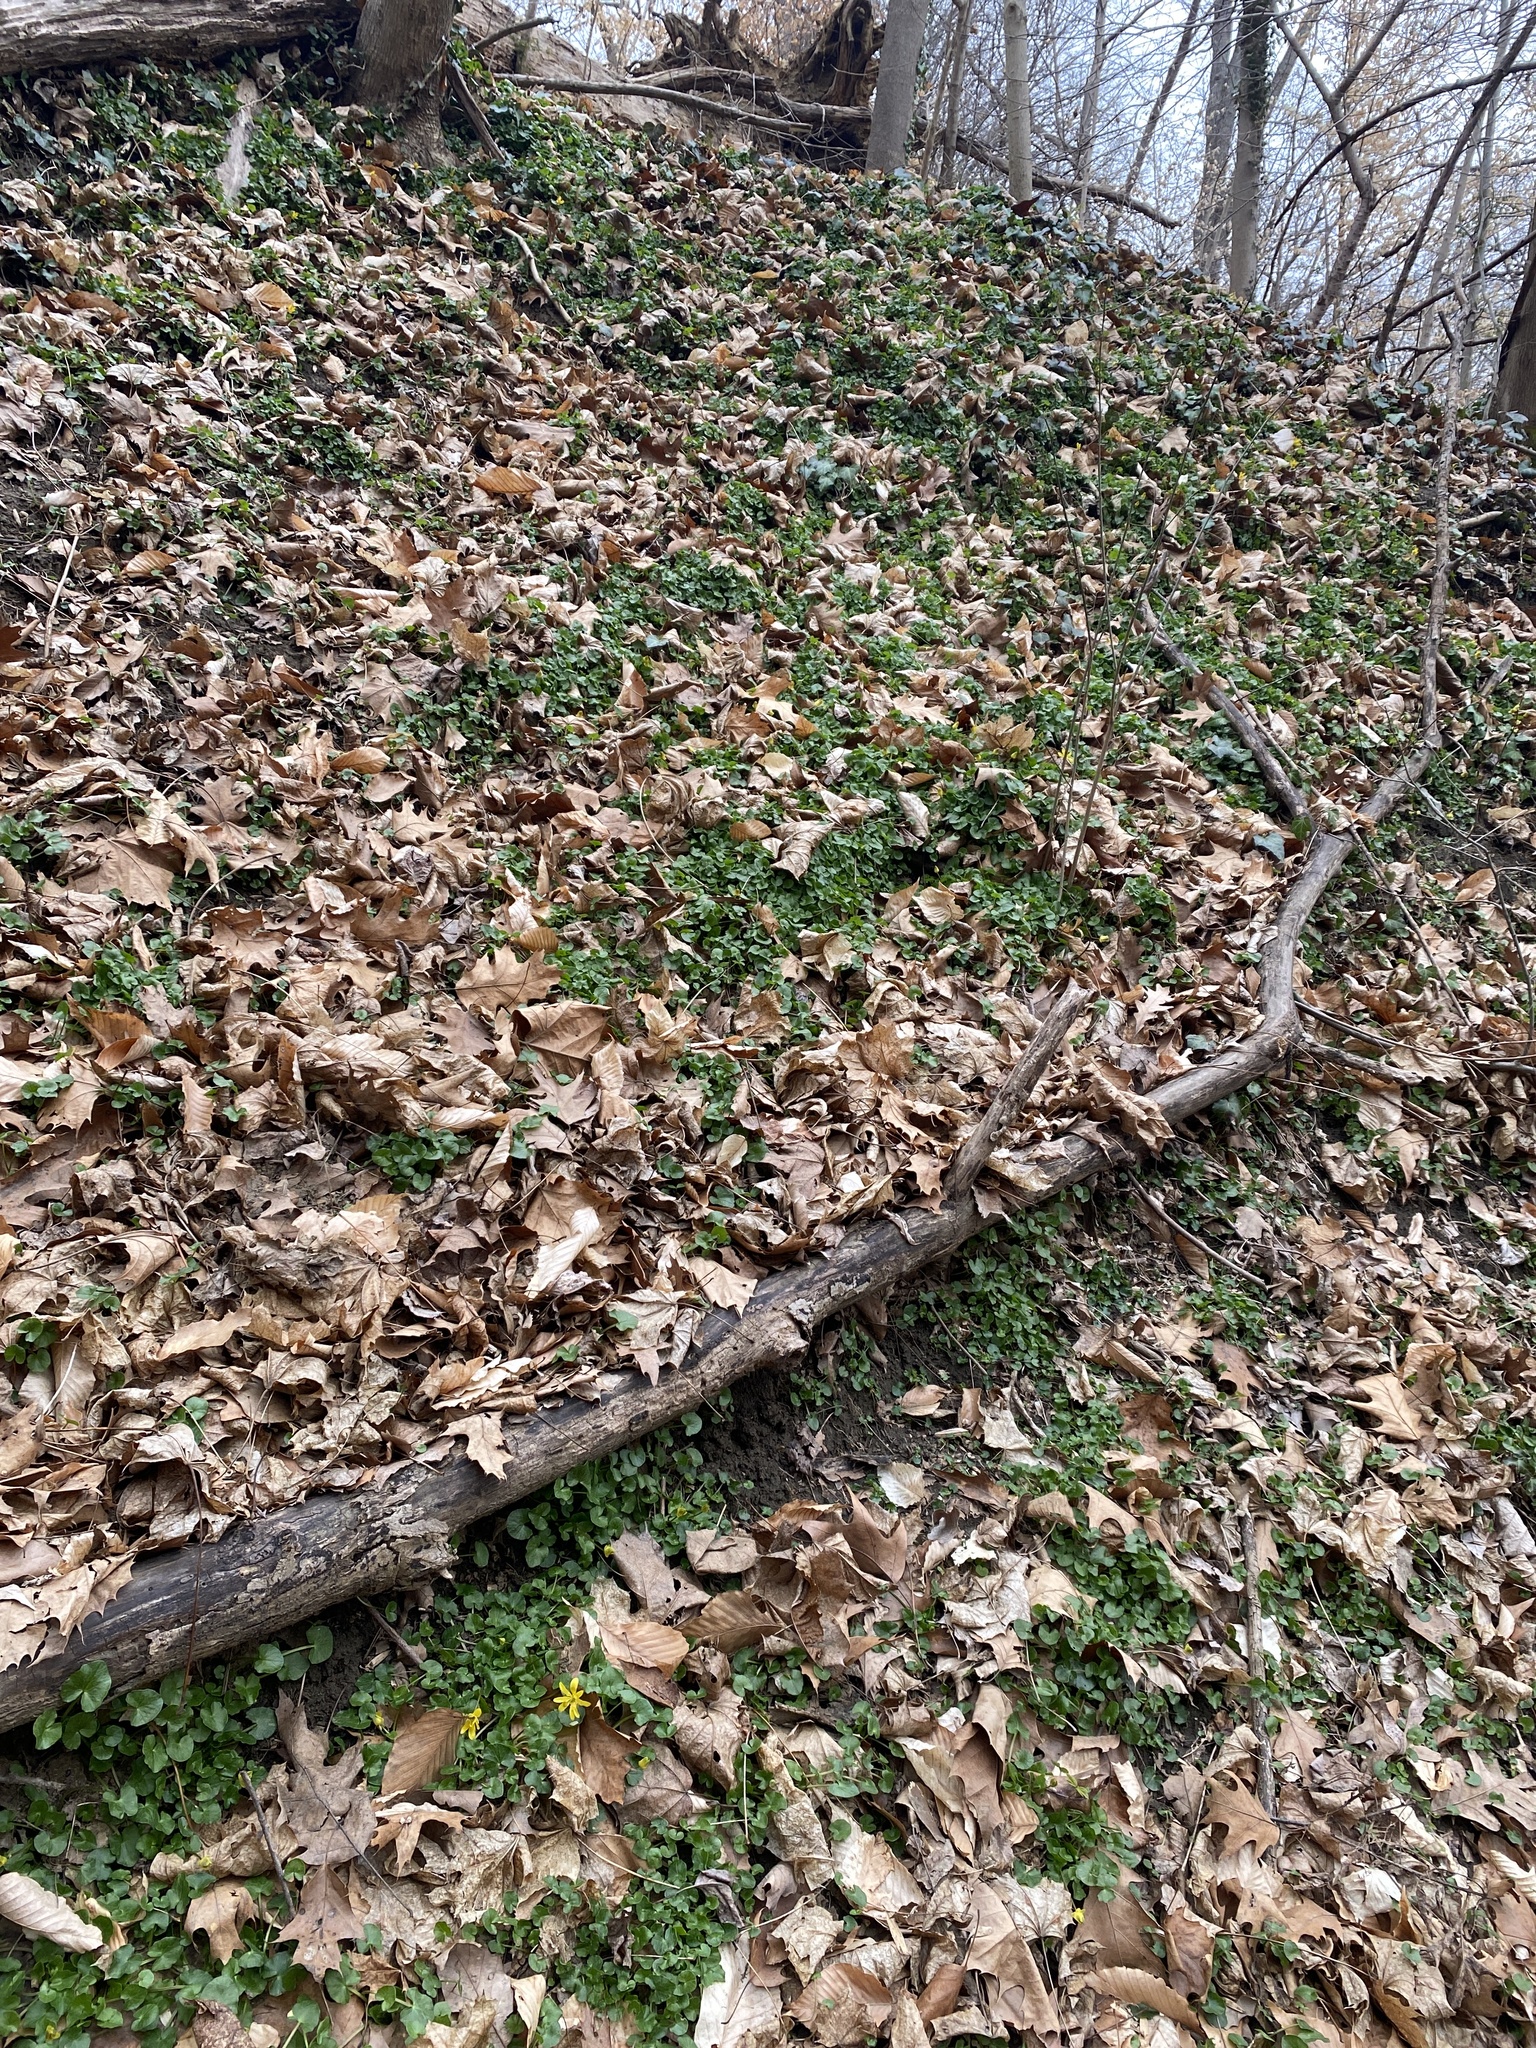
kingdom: Plantae
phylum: Tracheophyta
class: Magnoliopsida
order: Ranunculales
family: Ranunculaceae
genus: Ficaria
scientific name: Ficaria verna
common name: Lesser celandine
